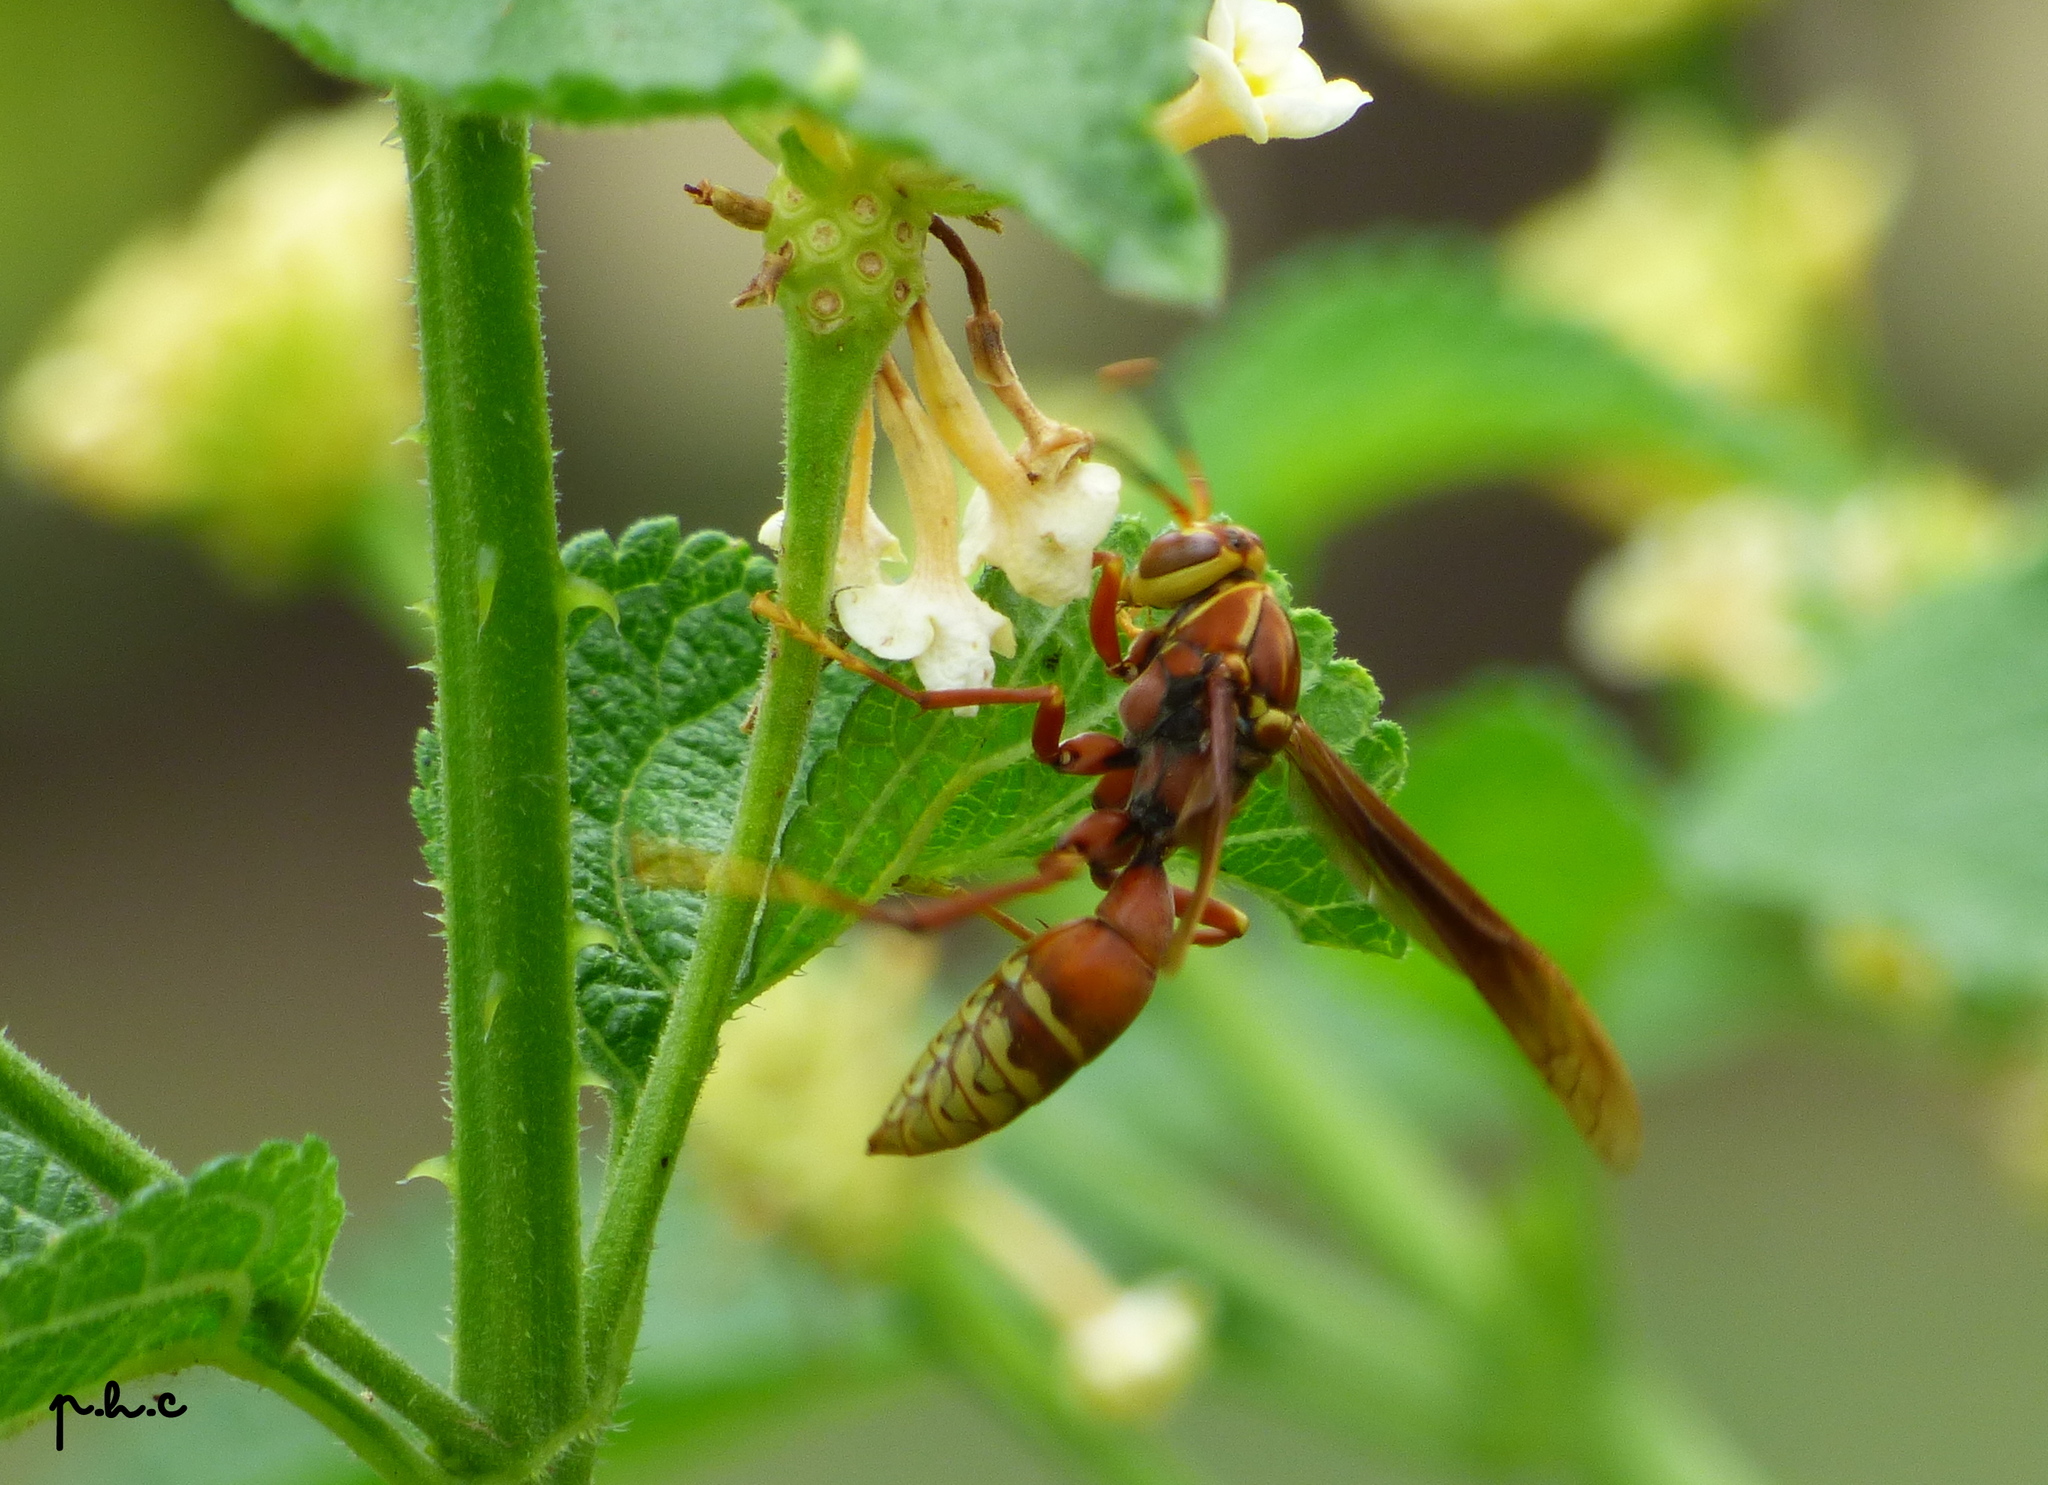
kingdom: Animalia
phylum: Arthropoda
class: Insecta
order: Hymenoptera
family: Eumenidae
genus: Polistes
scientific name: Polistes cavapyta
